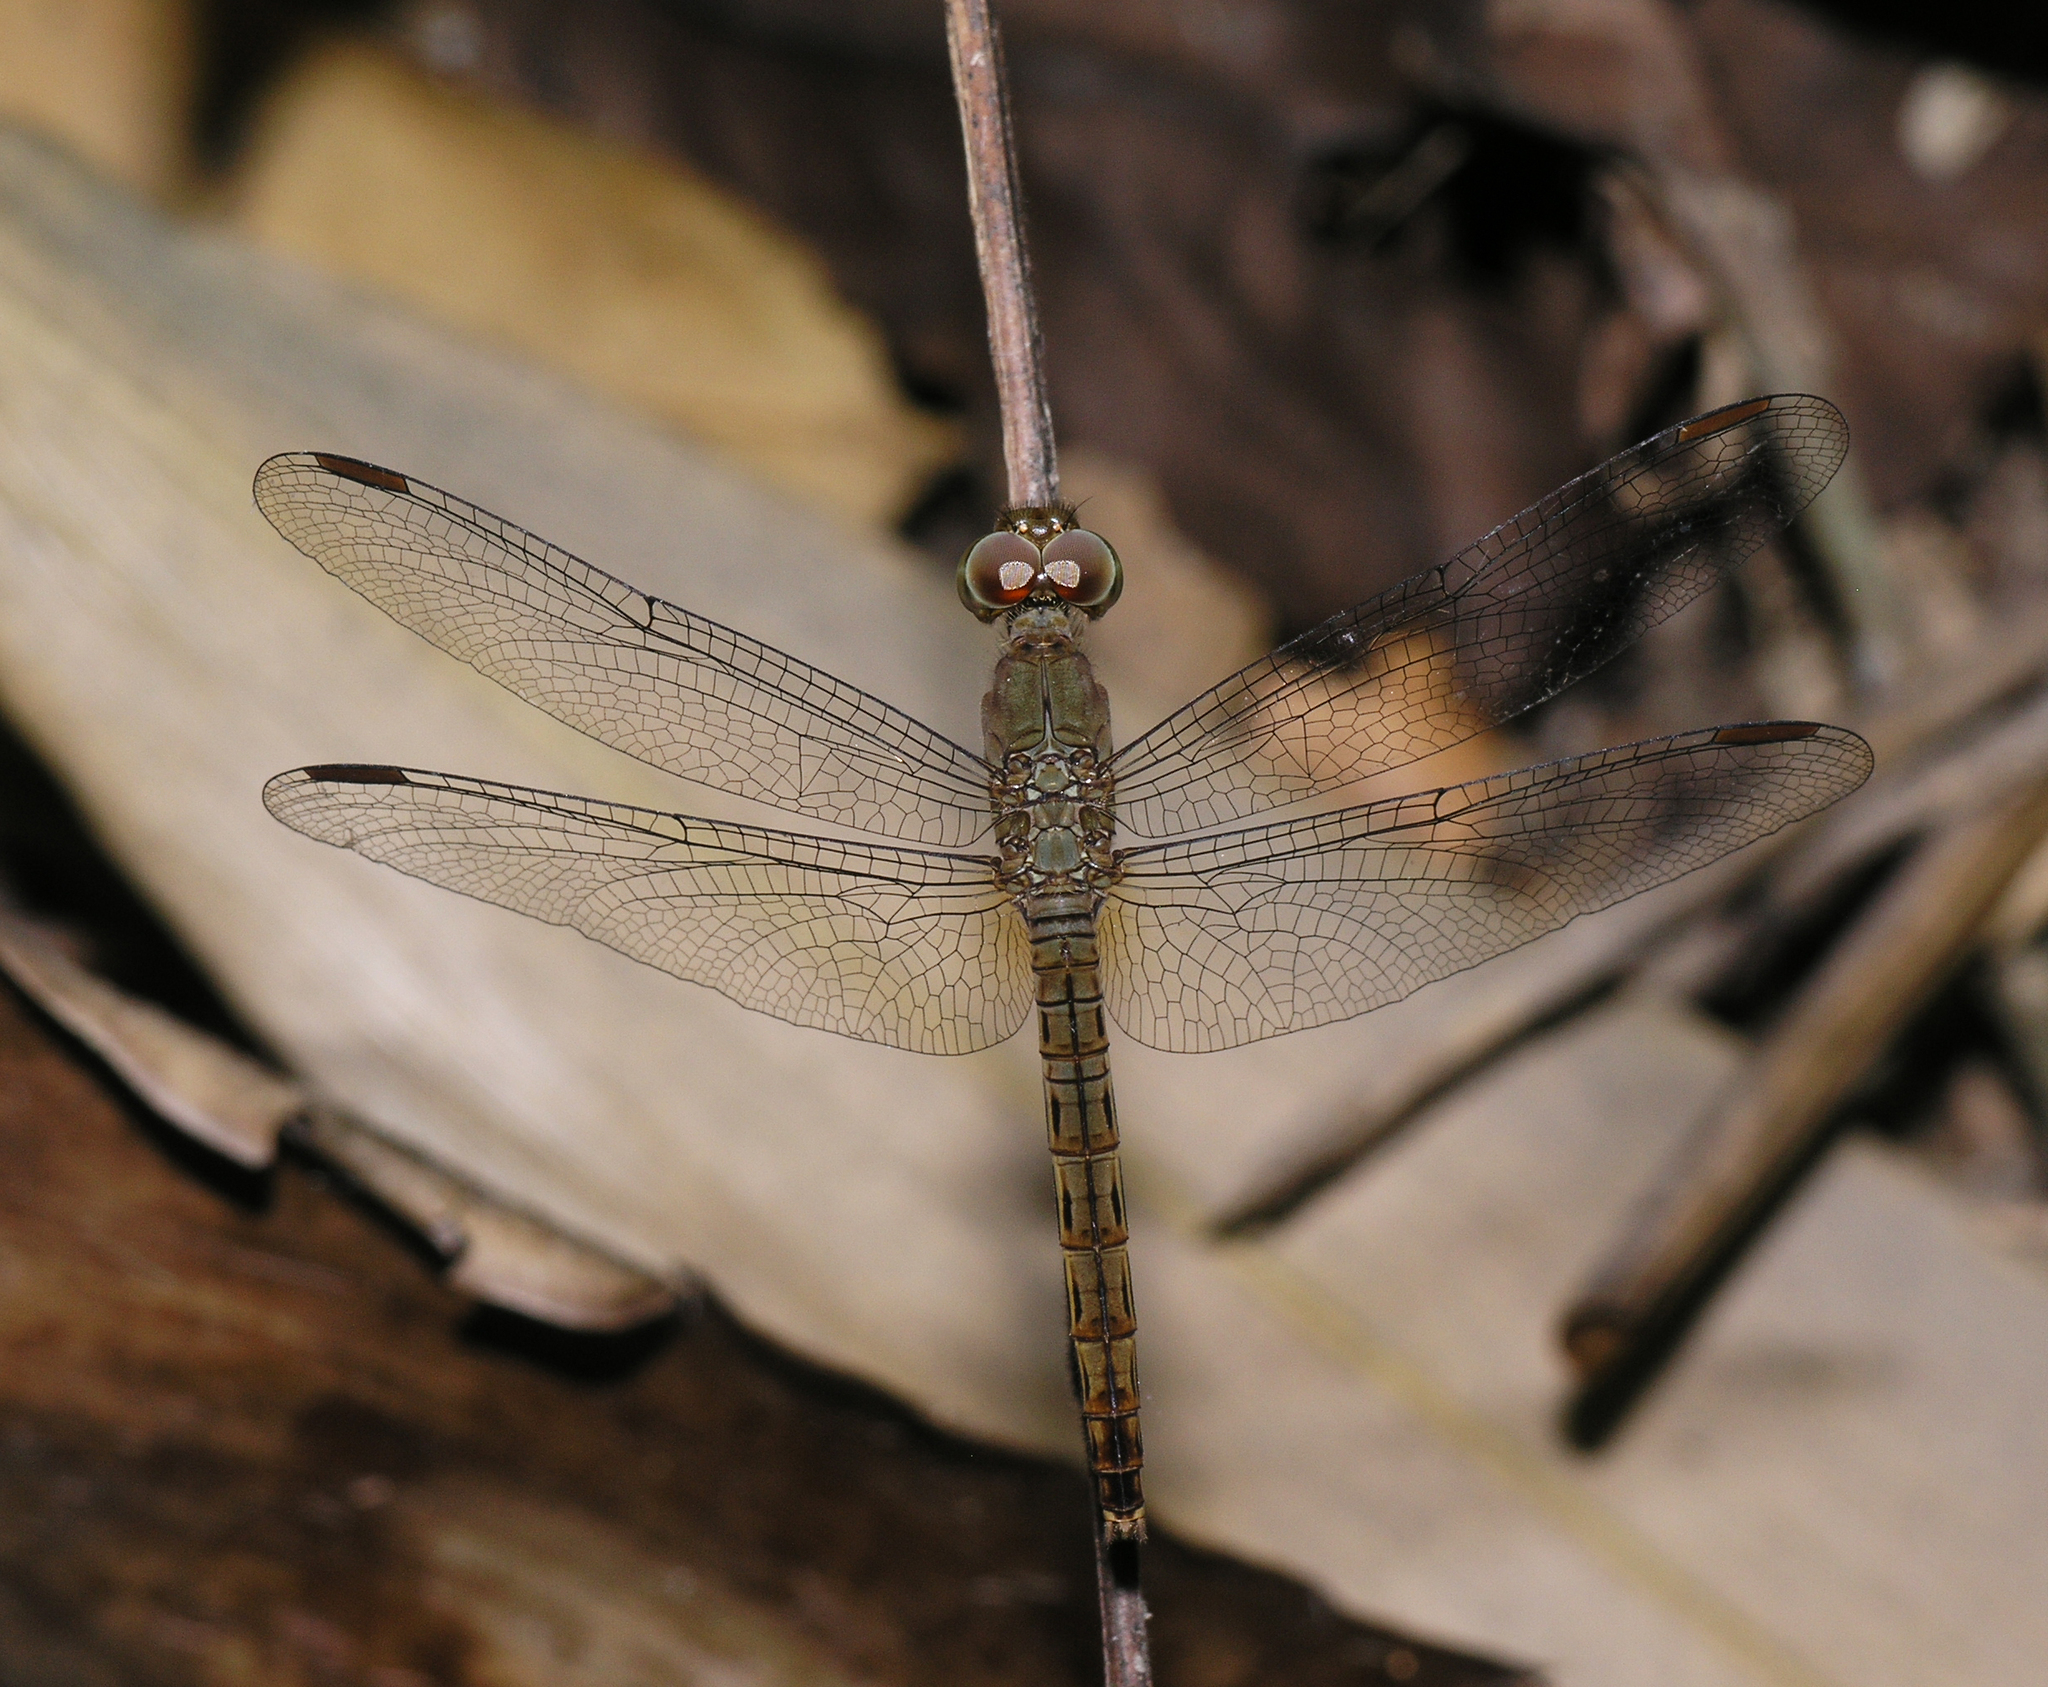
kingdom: Animalia
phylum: Arthropoda
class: Insecta
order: Odonata
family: Libellulidae
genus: Neurothemis
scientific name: Neurothemis fluctuans
